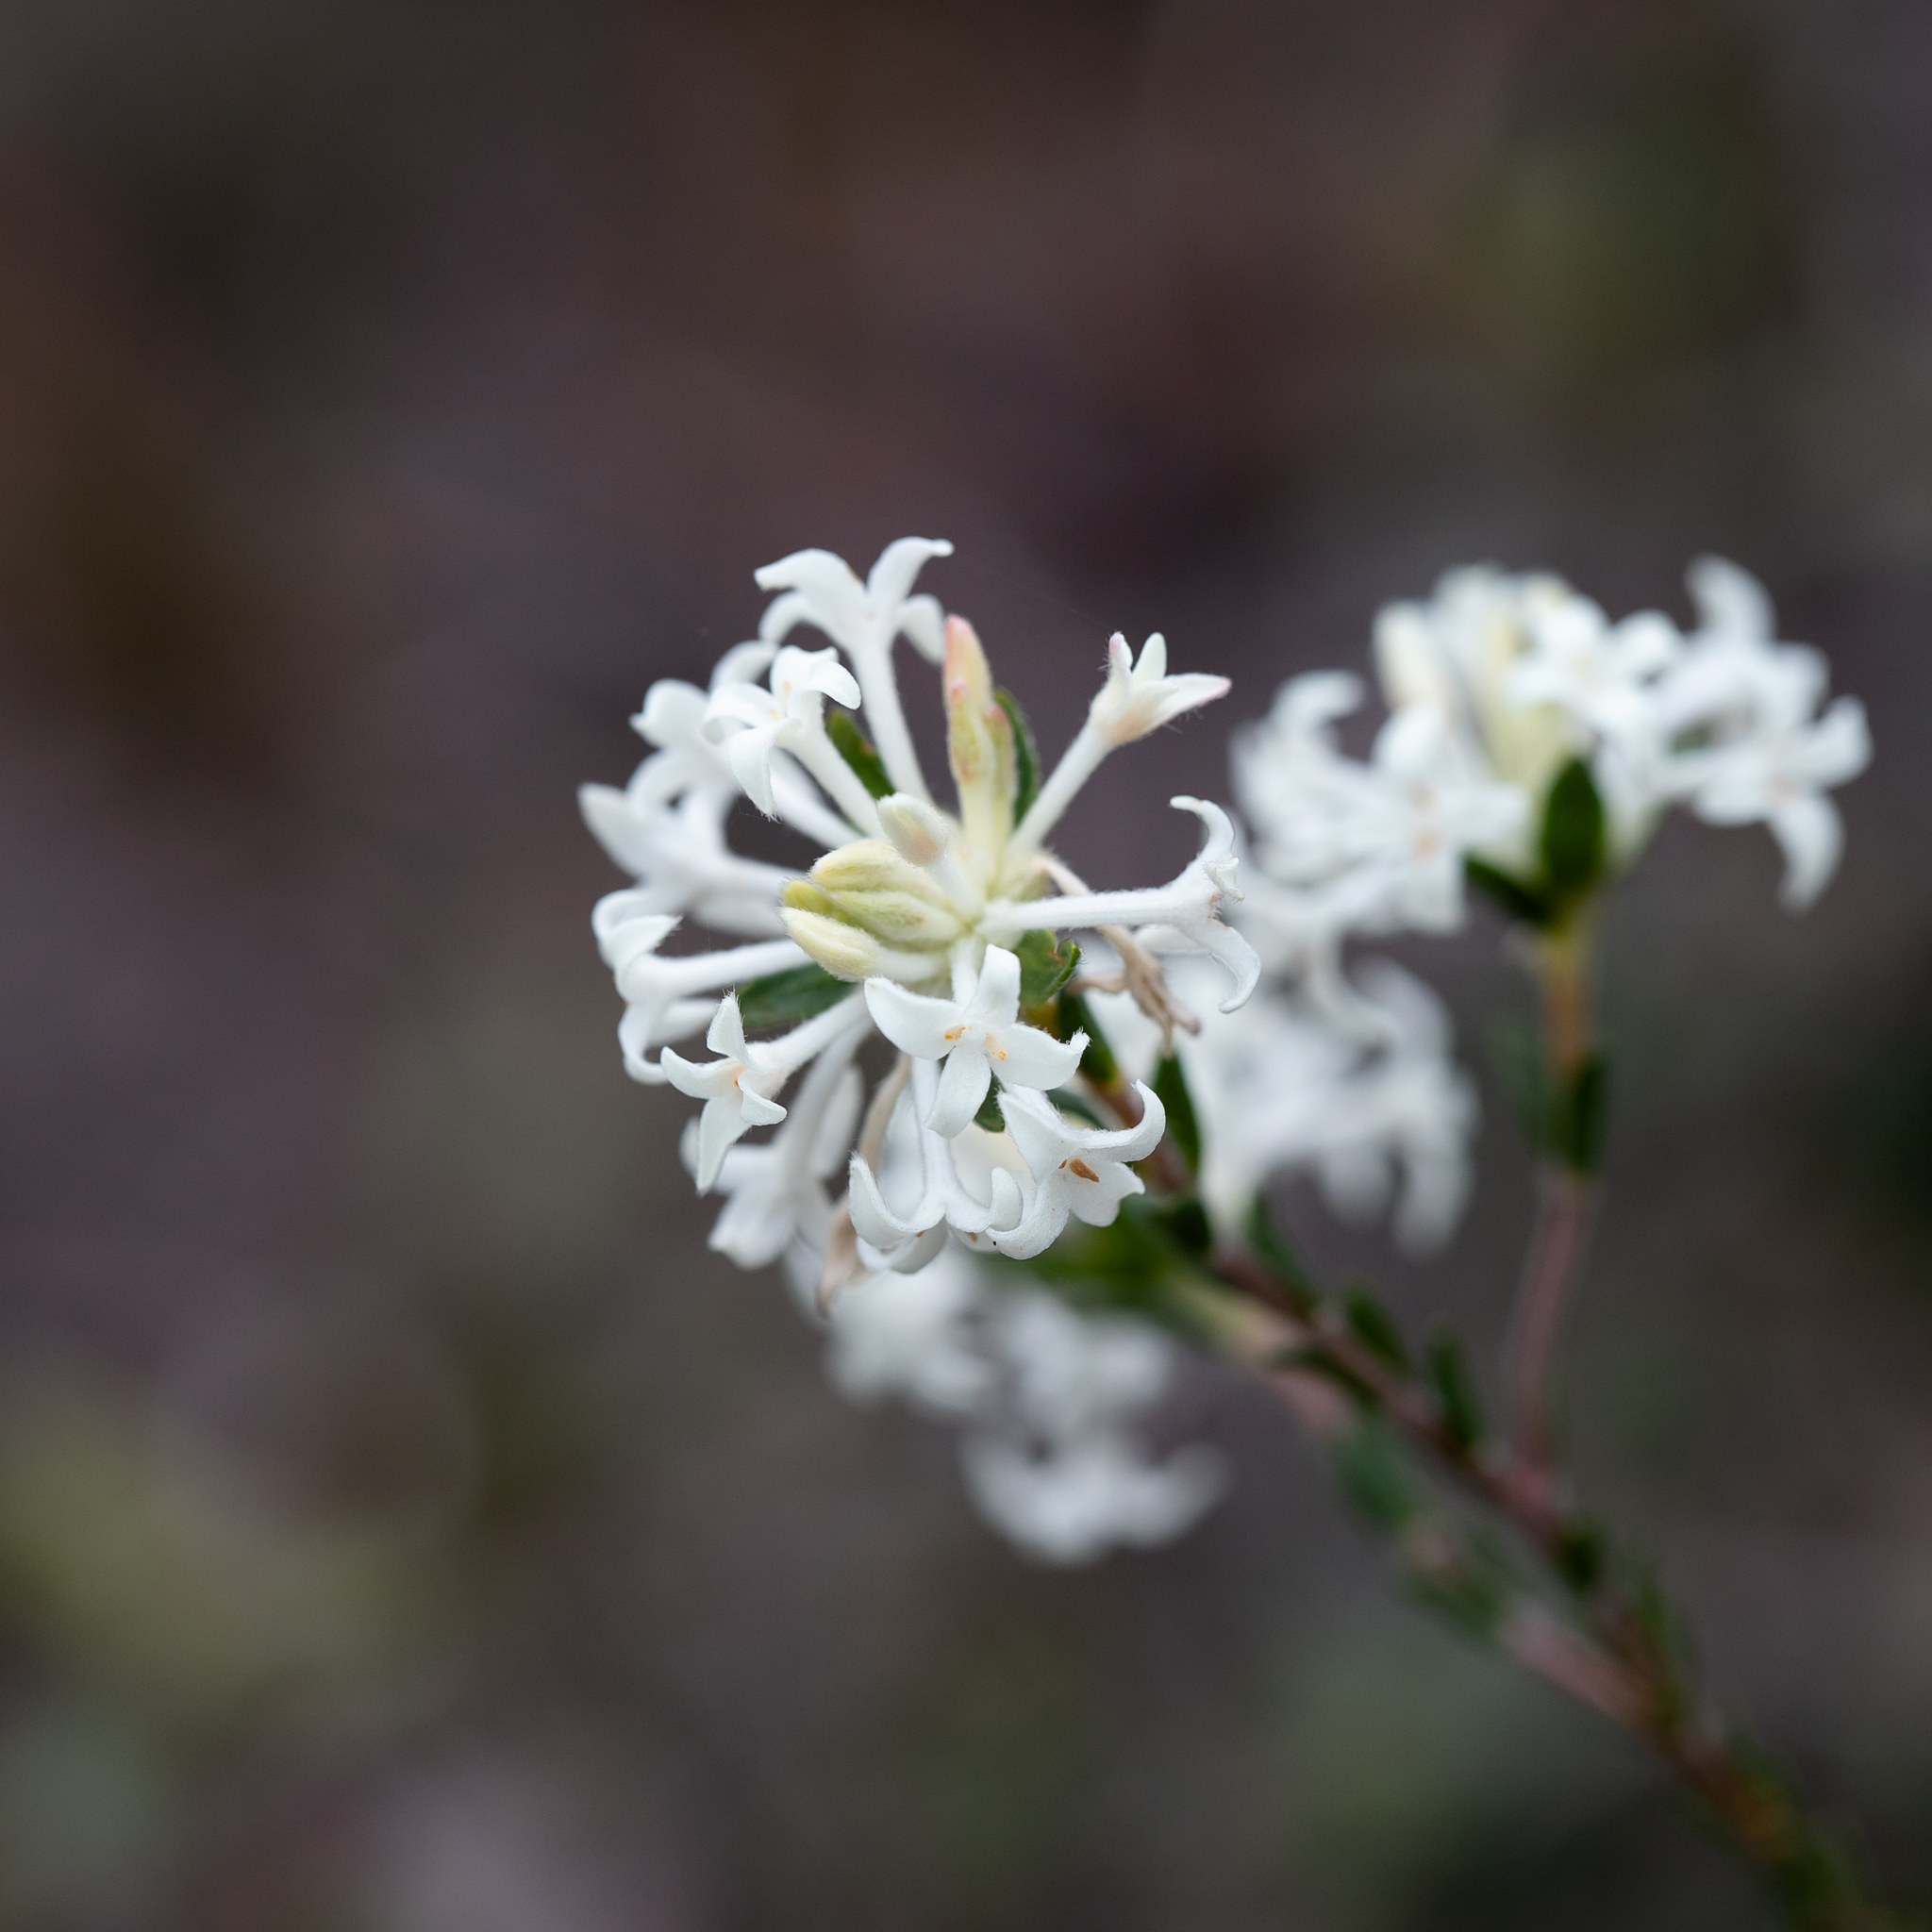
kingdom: Plantae
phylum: Tracheophyta
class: Magnoliopsida
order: Malvales
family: Thymelaeaceae
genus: Pimelea
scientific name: Pimelea phylicoides
